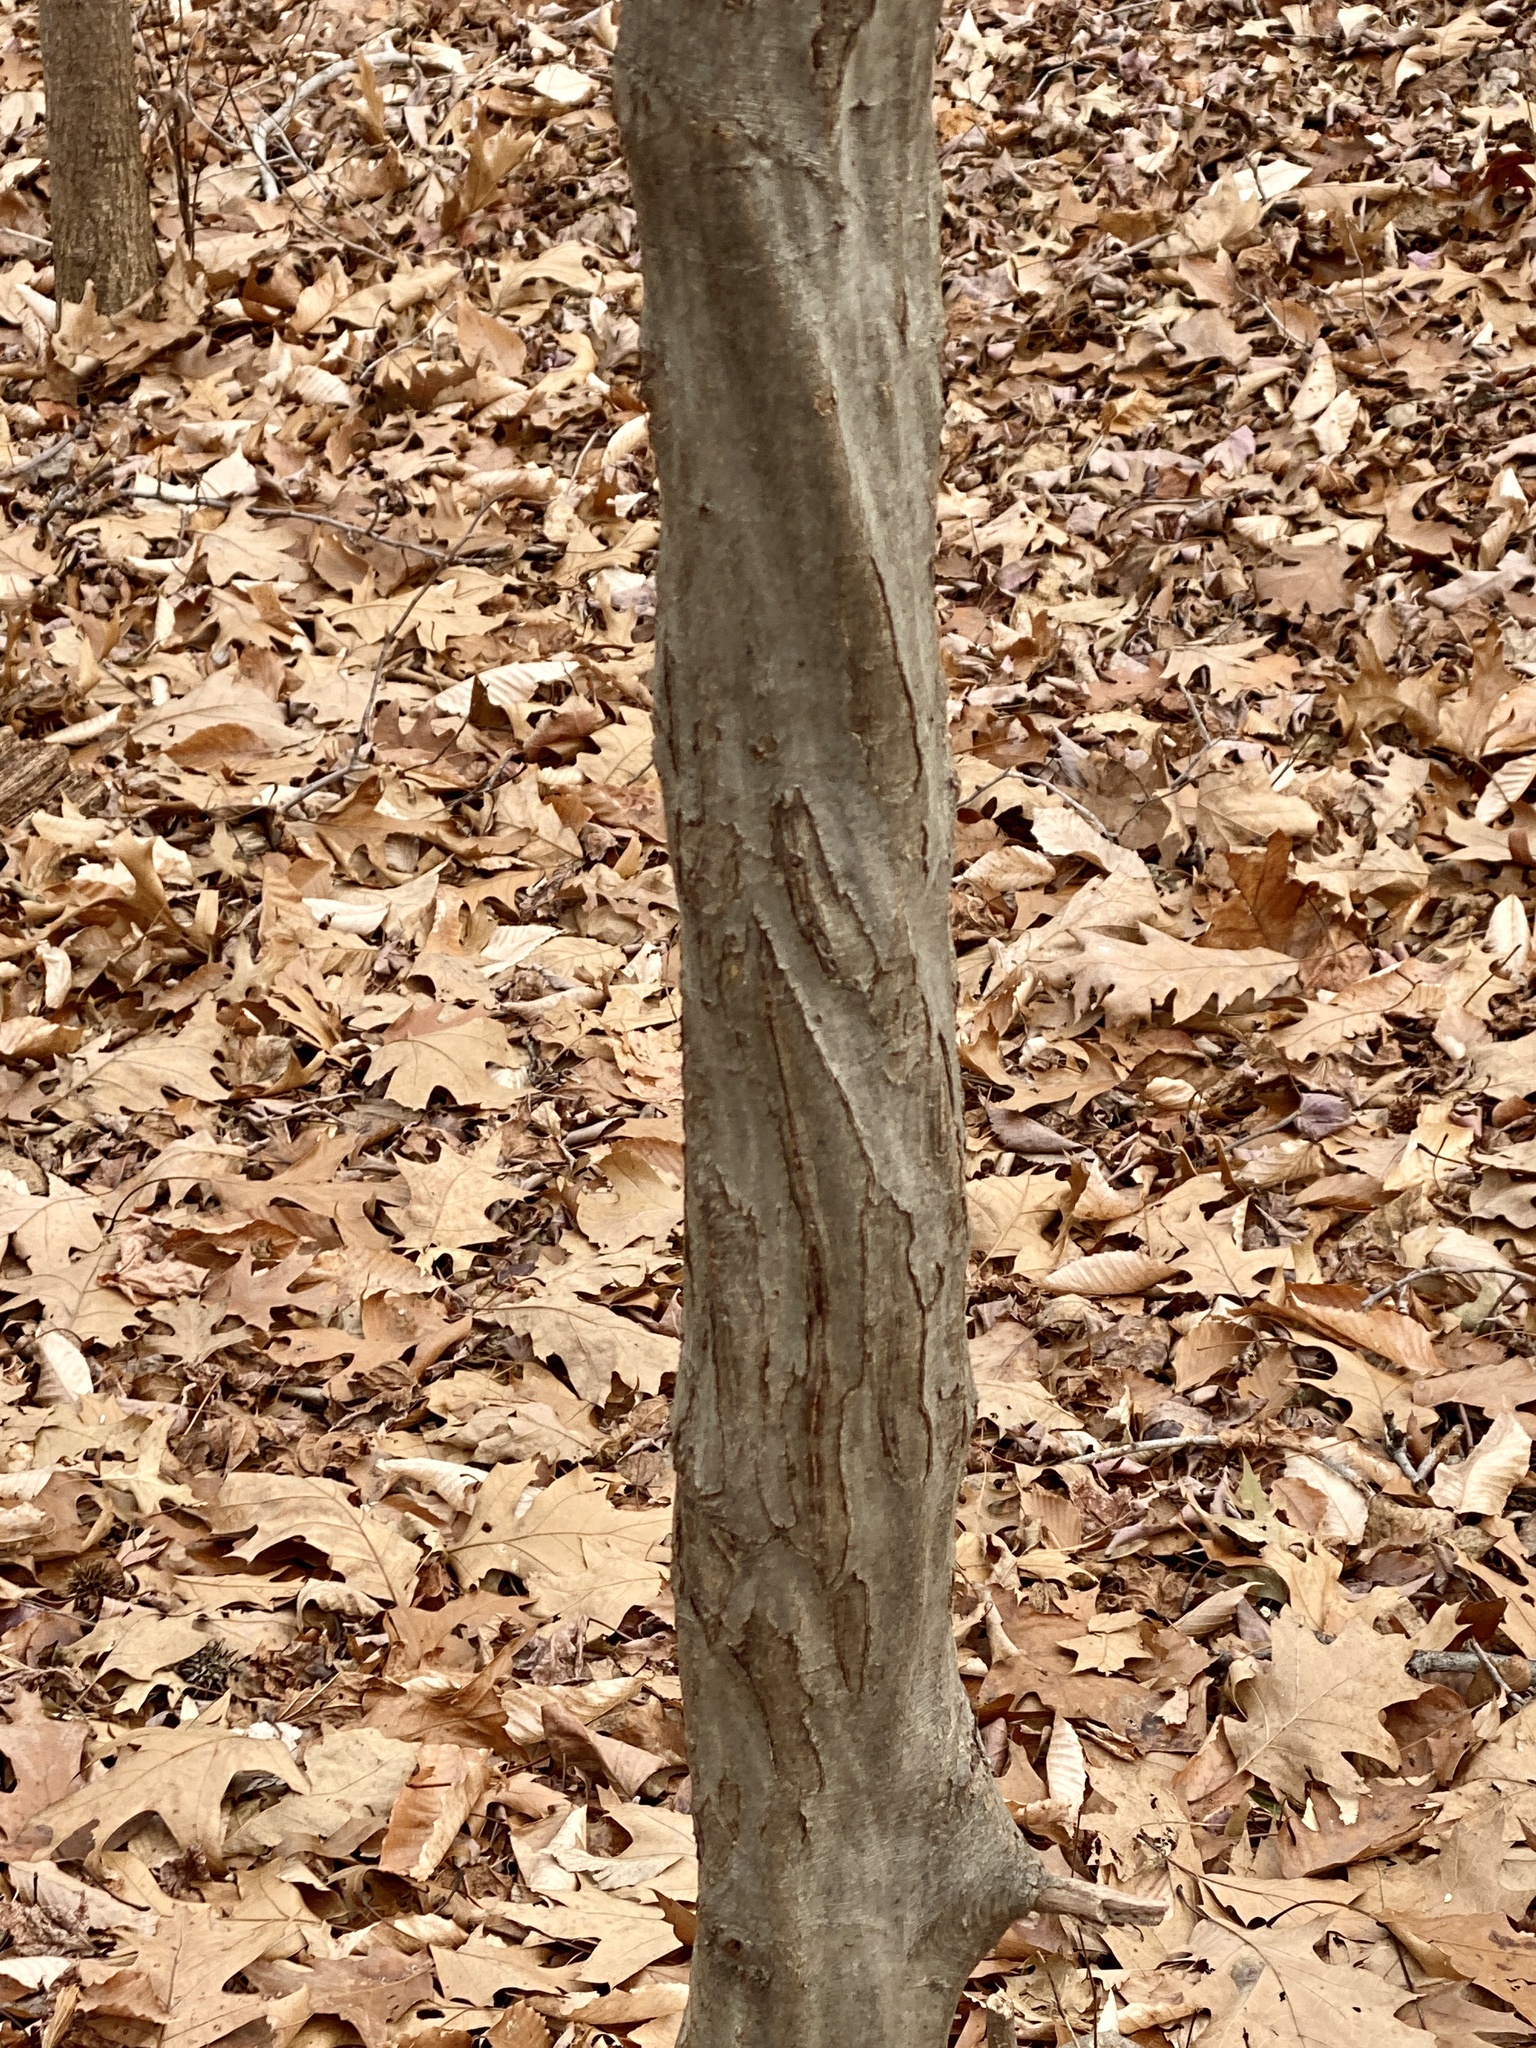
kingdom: Plantae
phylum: Tracheophyta
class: Magnoliopsida
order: Fagales
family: Betulaceae
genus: Carpinus
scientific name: Carpinus caroliniana
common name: American hornbeam
